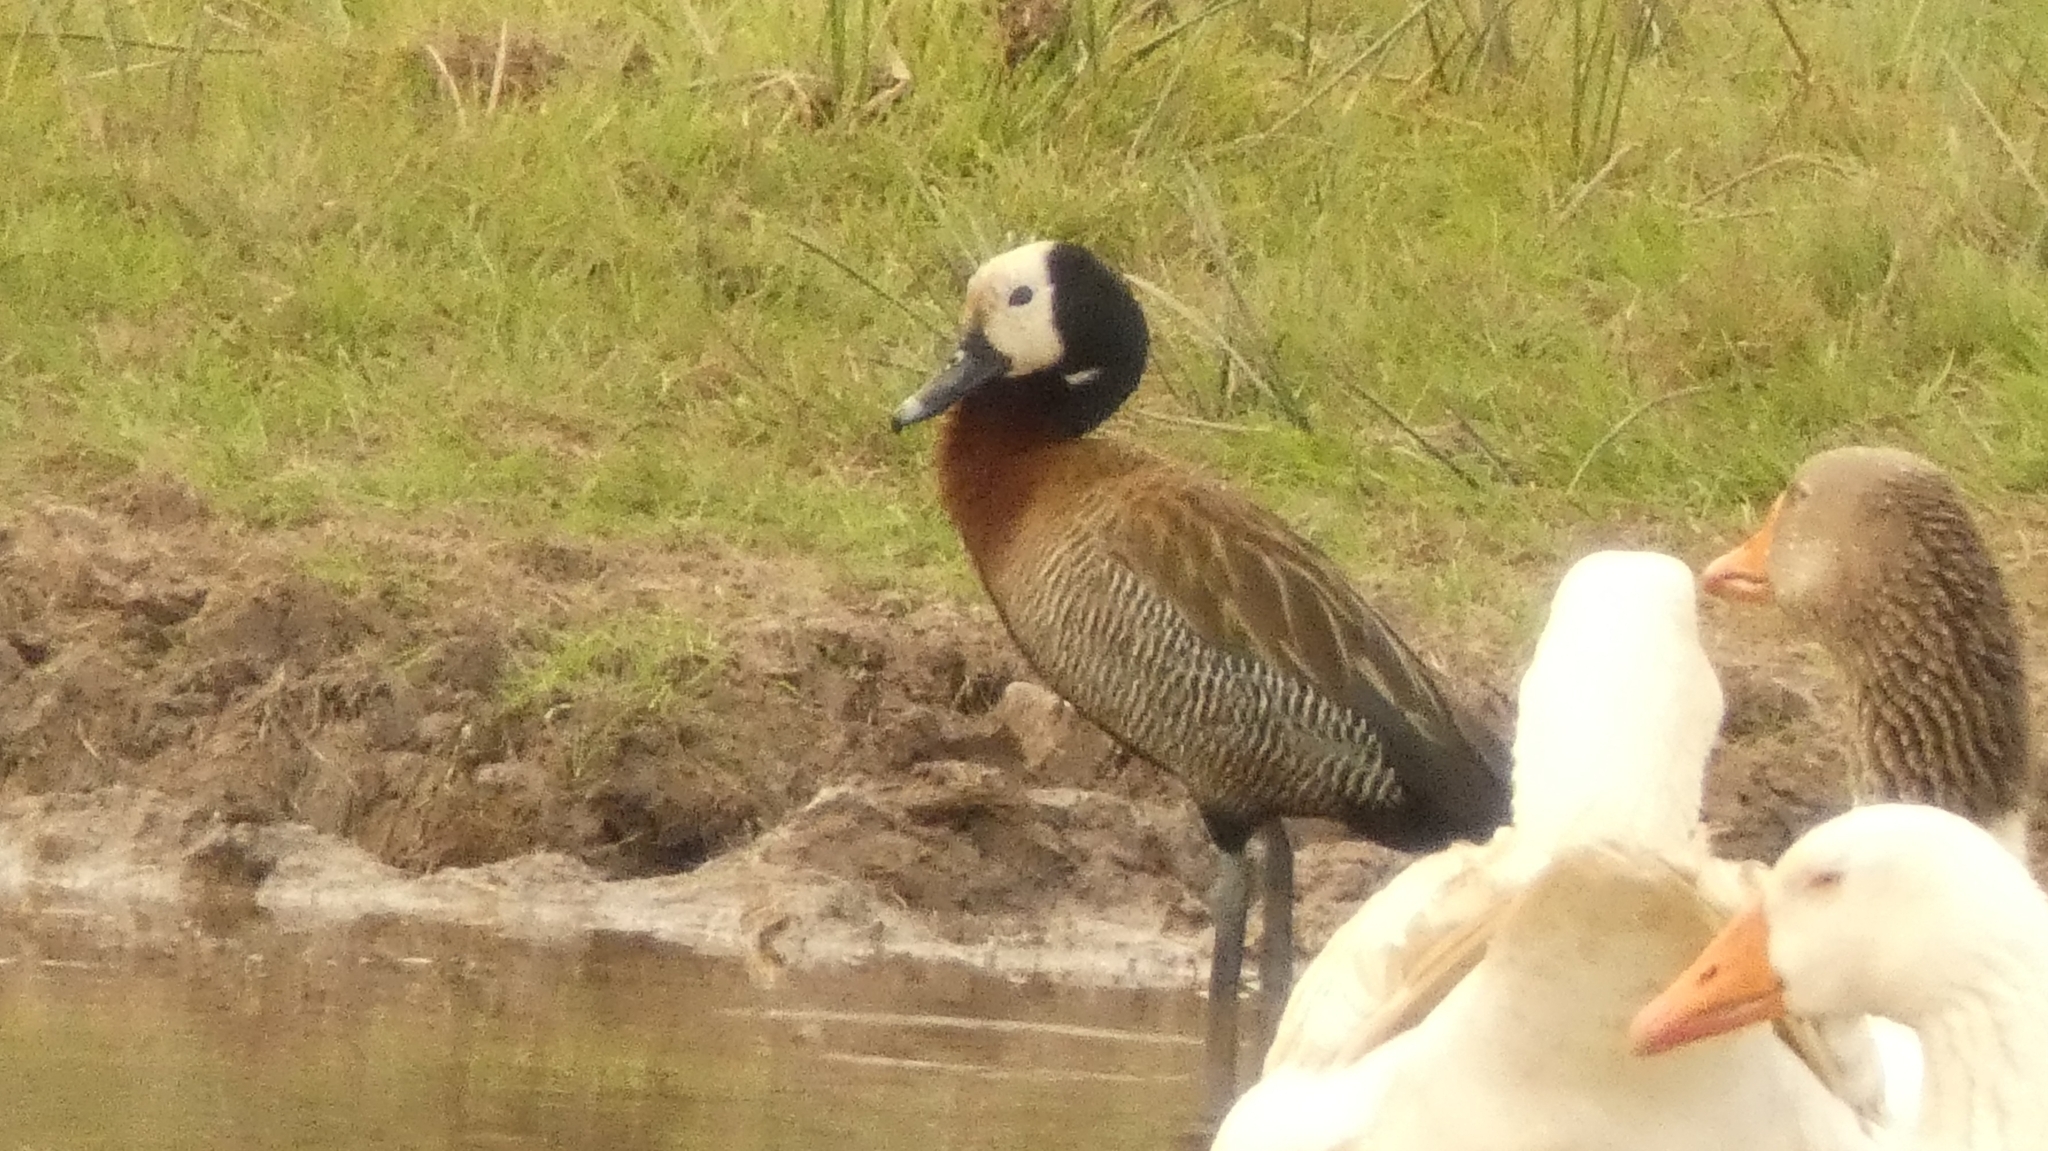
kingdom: Animalia
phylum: Chordata
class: Aves
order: Anseriformes
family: Anatidae
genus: Dendrocygna
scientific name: Dendrocygna viduata
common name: White-faced whistling duck
